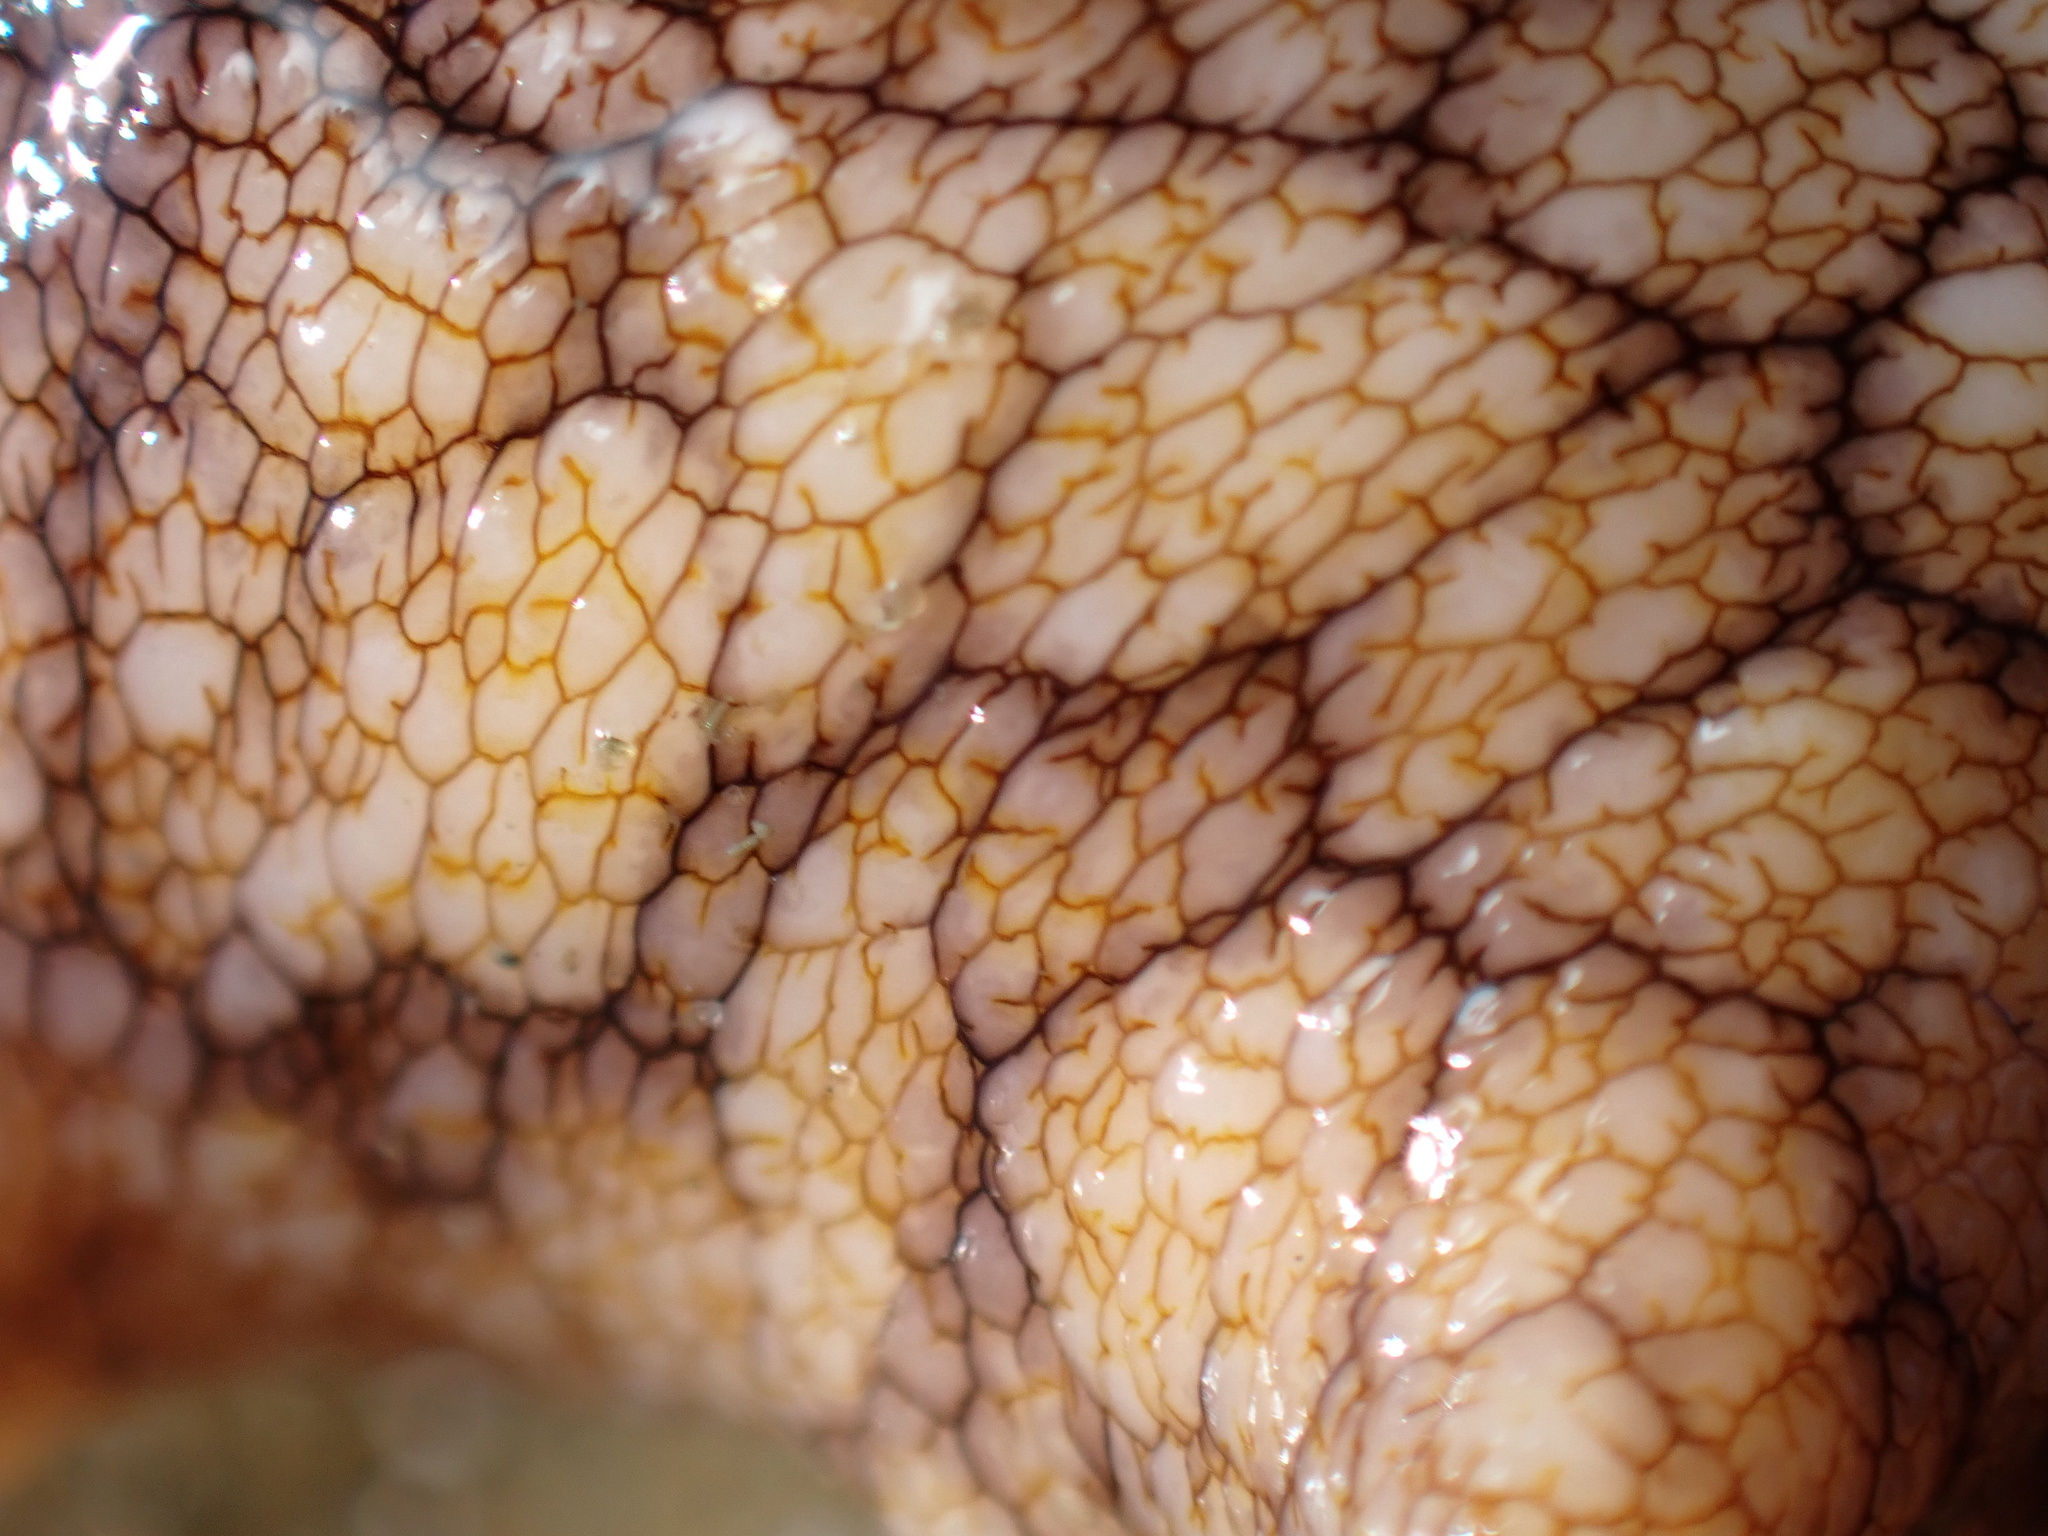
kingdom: Animalia
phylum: Mollusca
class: Gastropoda
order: Trochida
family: Turbinidae
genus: Megastraea
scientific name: Megastraea undosa
